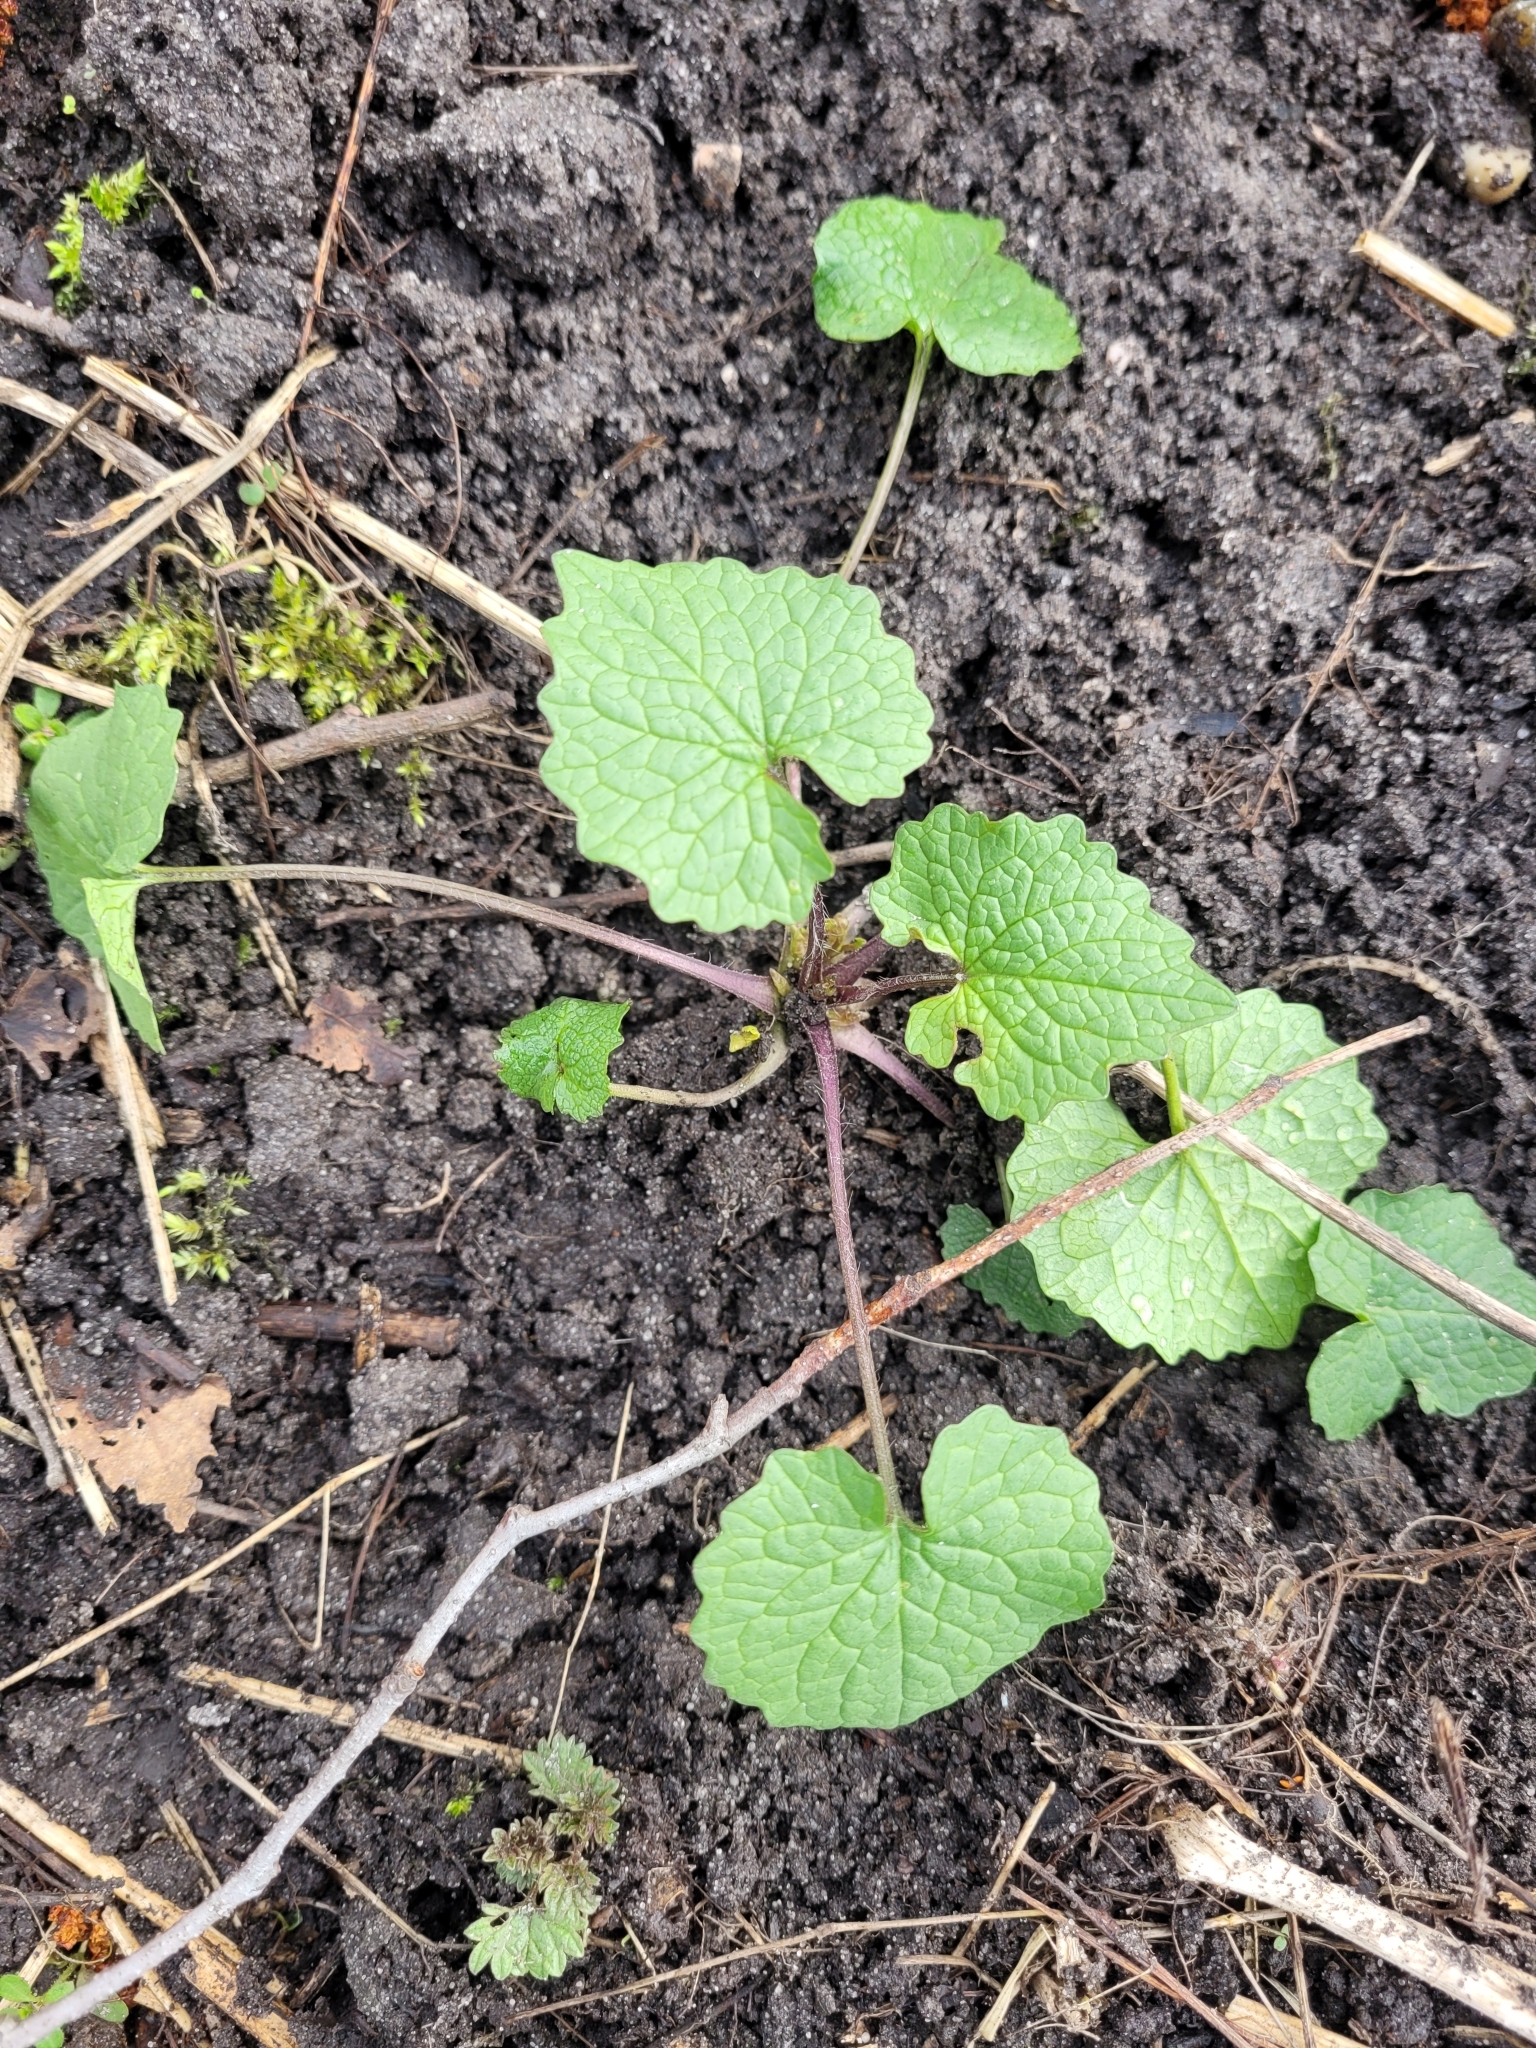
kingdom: Plantae
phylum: Tracheophyta
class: Magnoliopsida
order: Brassicales
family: Brassicaceae
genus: Alliaria
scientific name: Alliaria petiolata
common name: Garlic mustard
